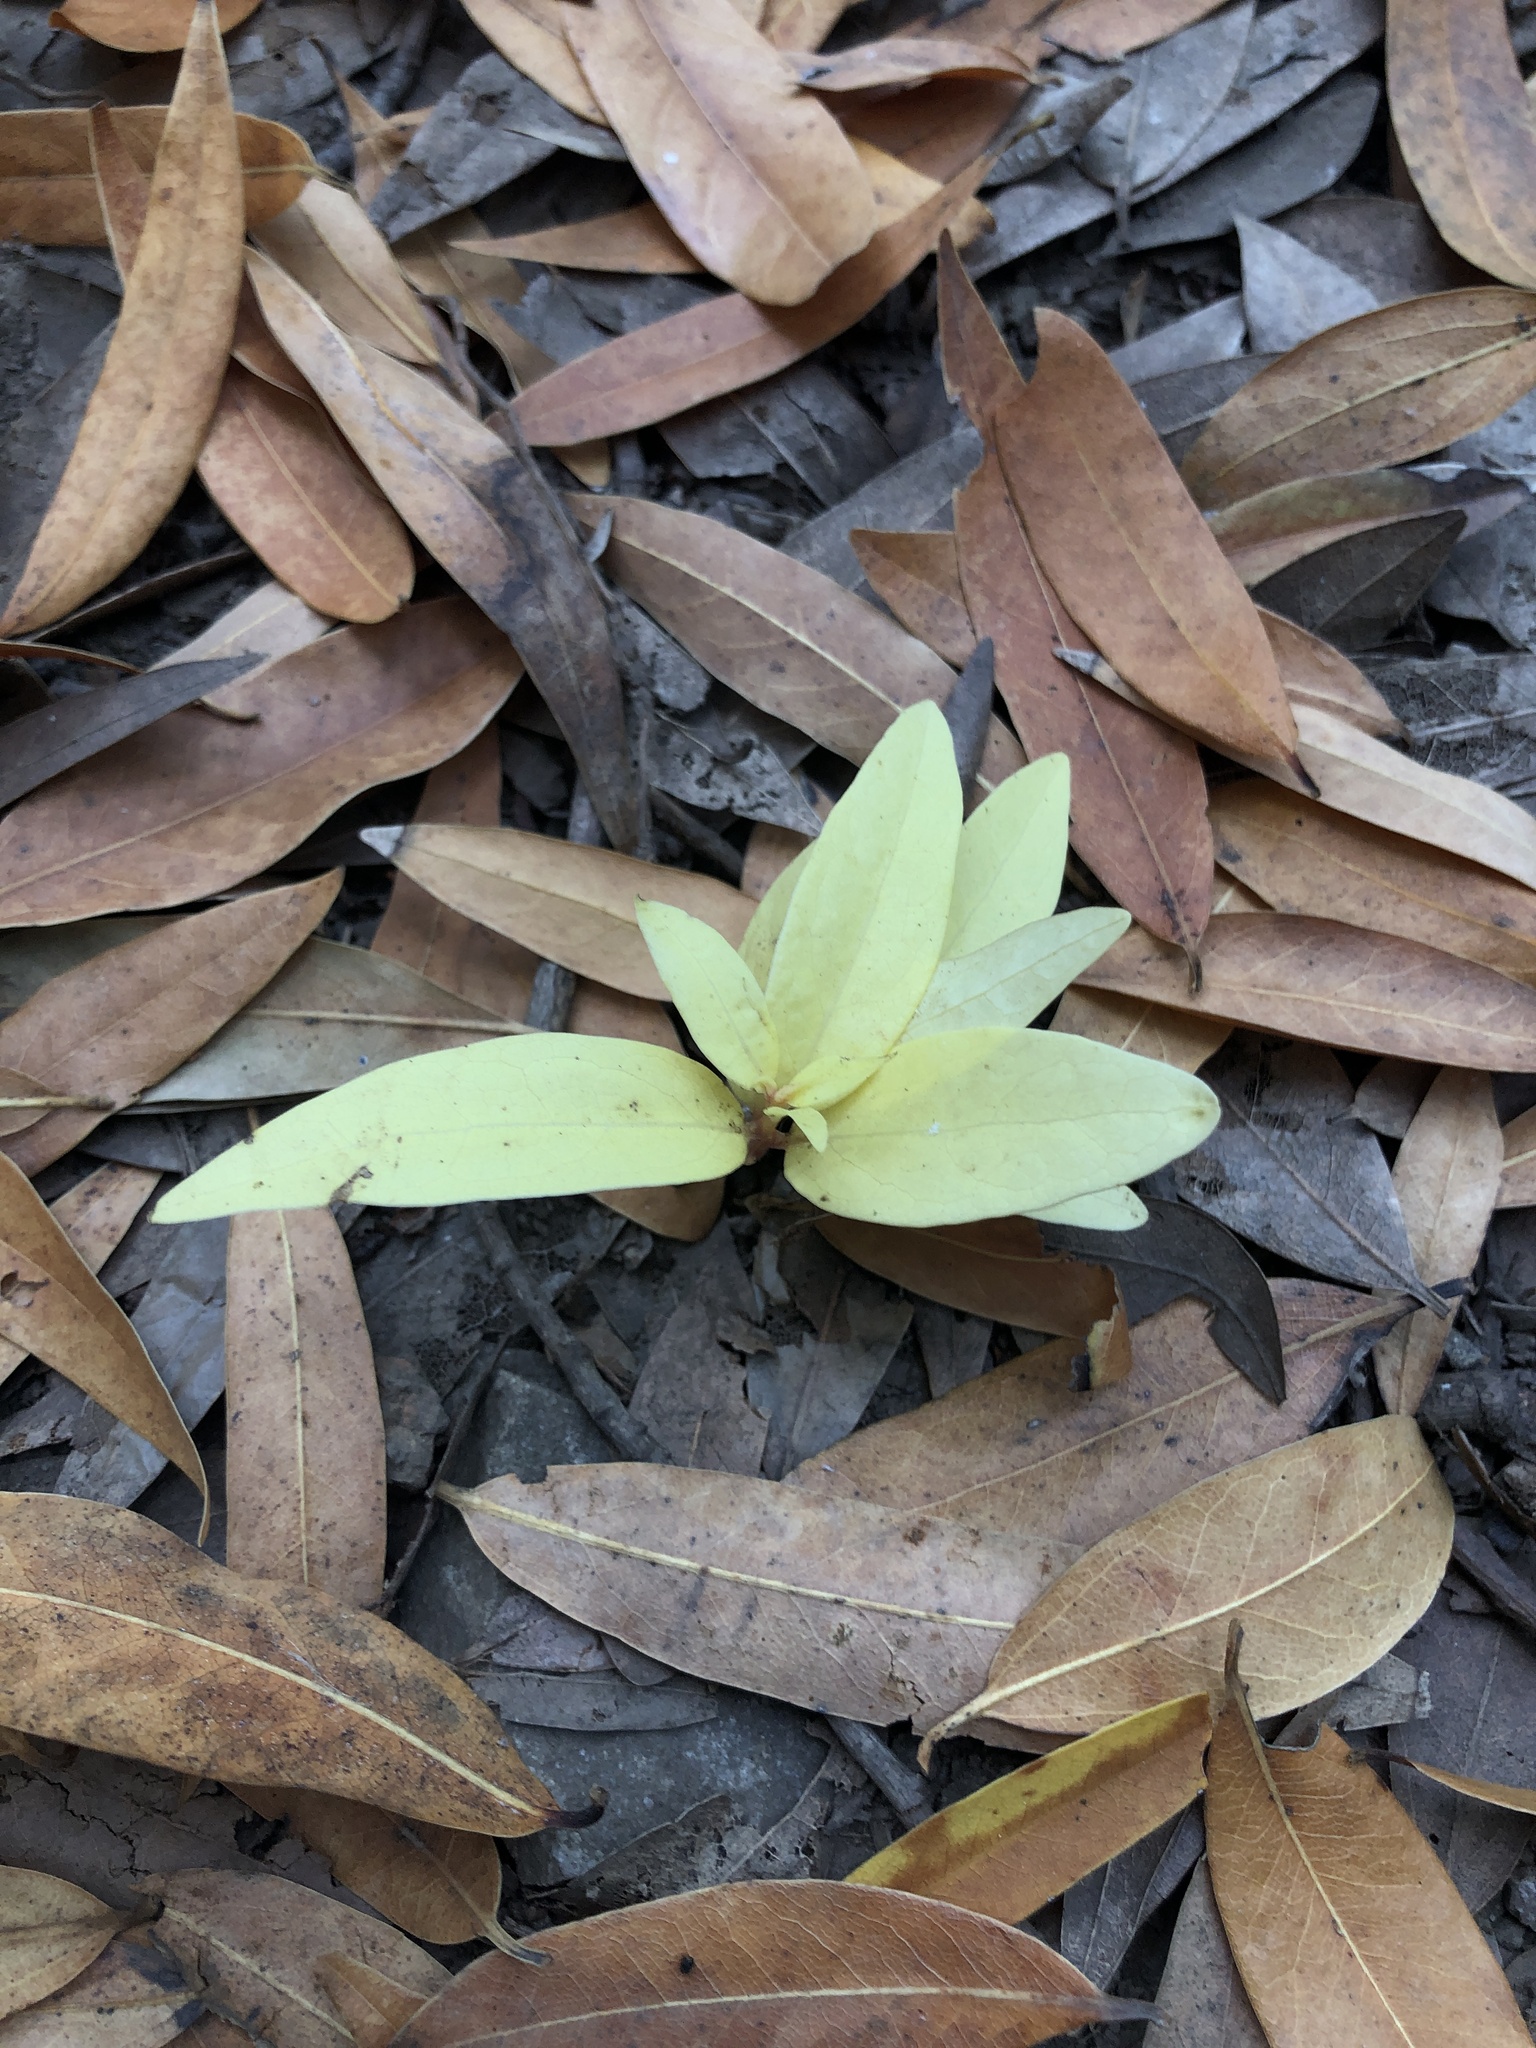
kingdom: Plantae
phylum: Tracheophyta
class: Magnoliopsida
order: Laurales
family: Lauraceae
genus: Umbellularia
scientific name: Umbellularia californica
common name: California bay
